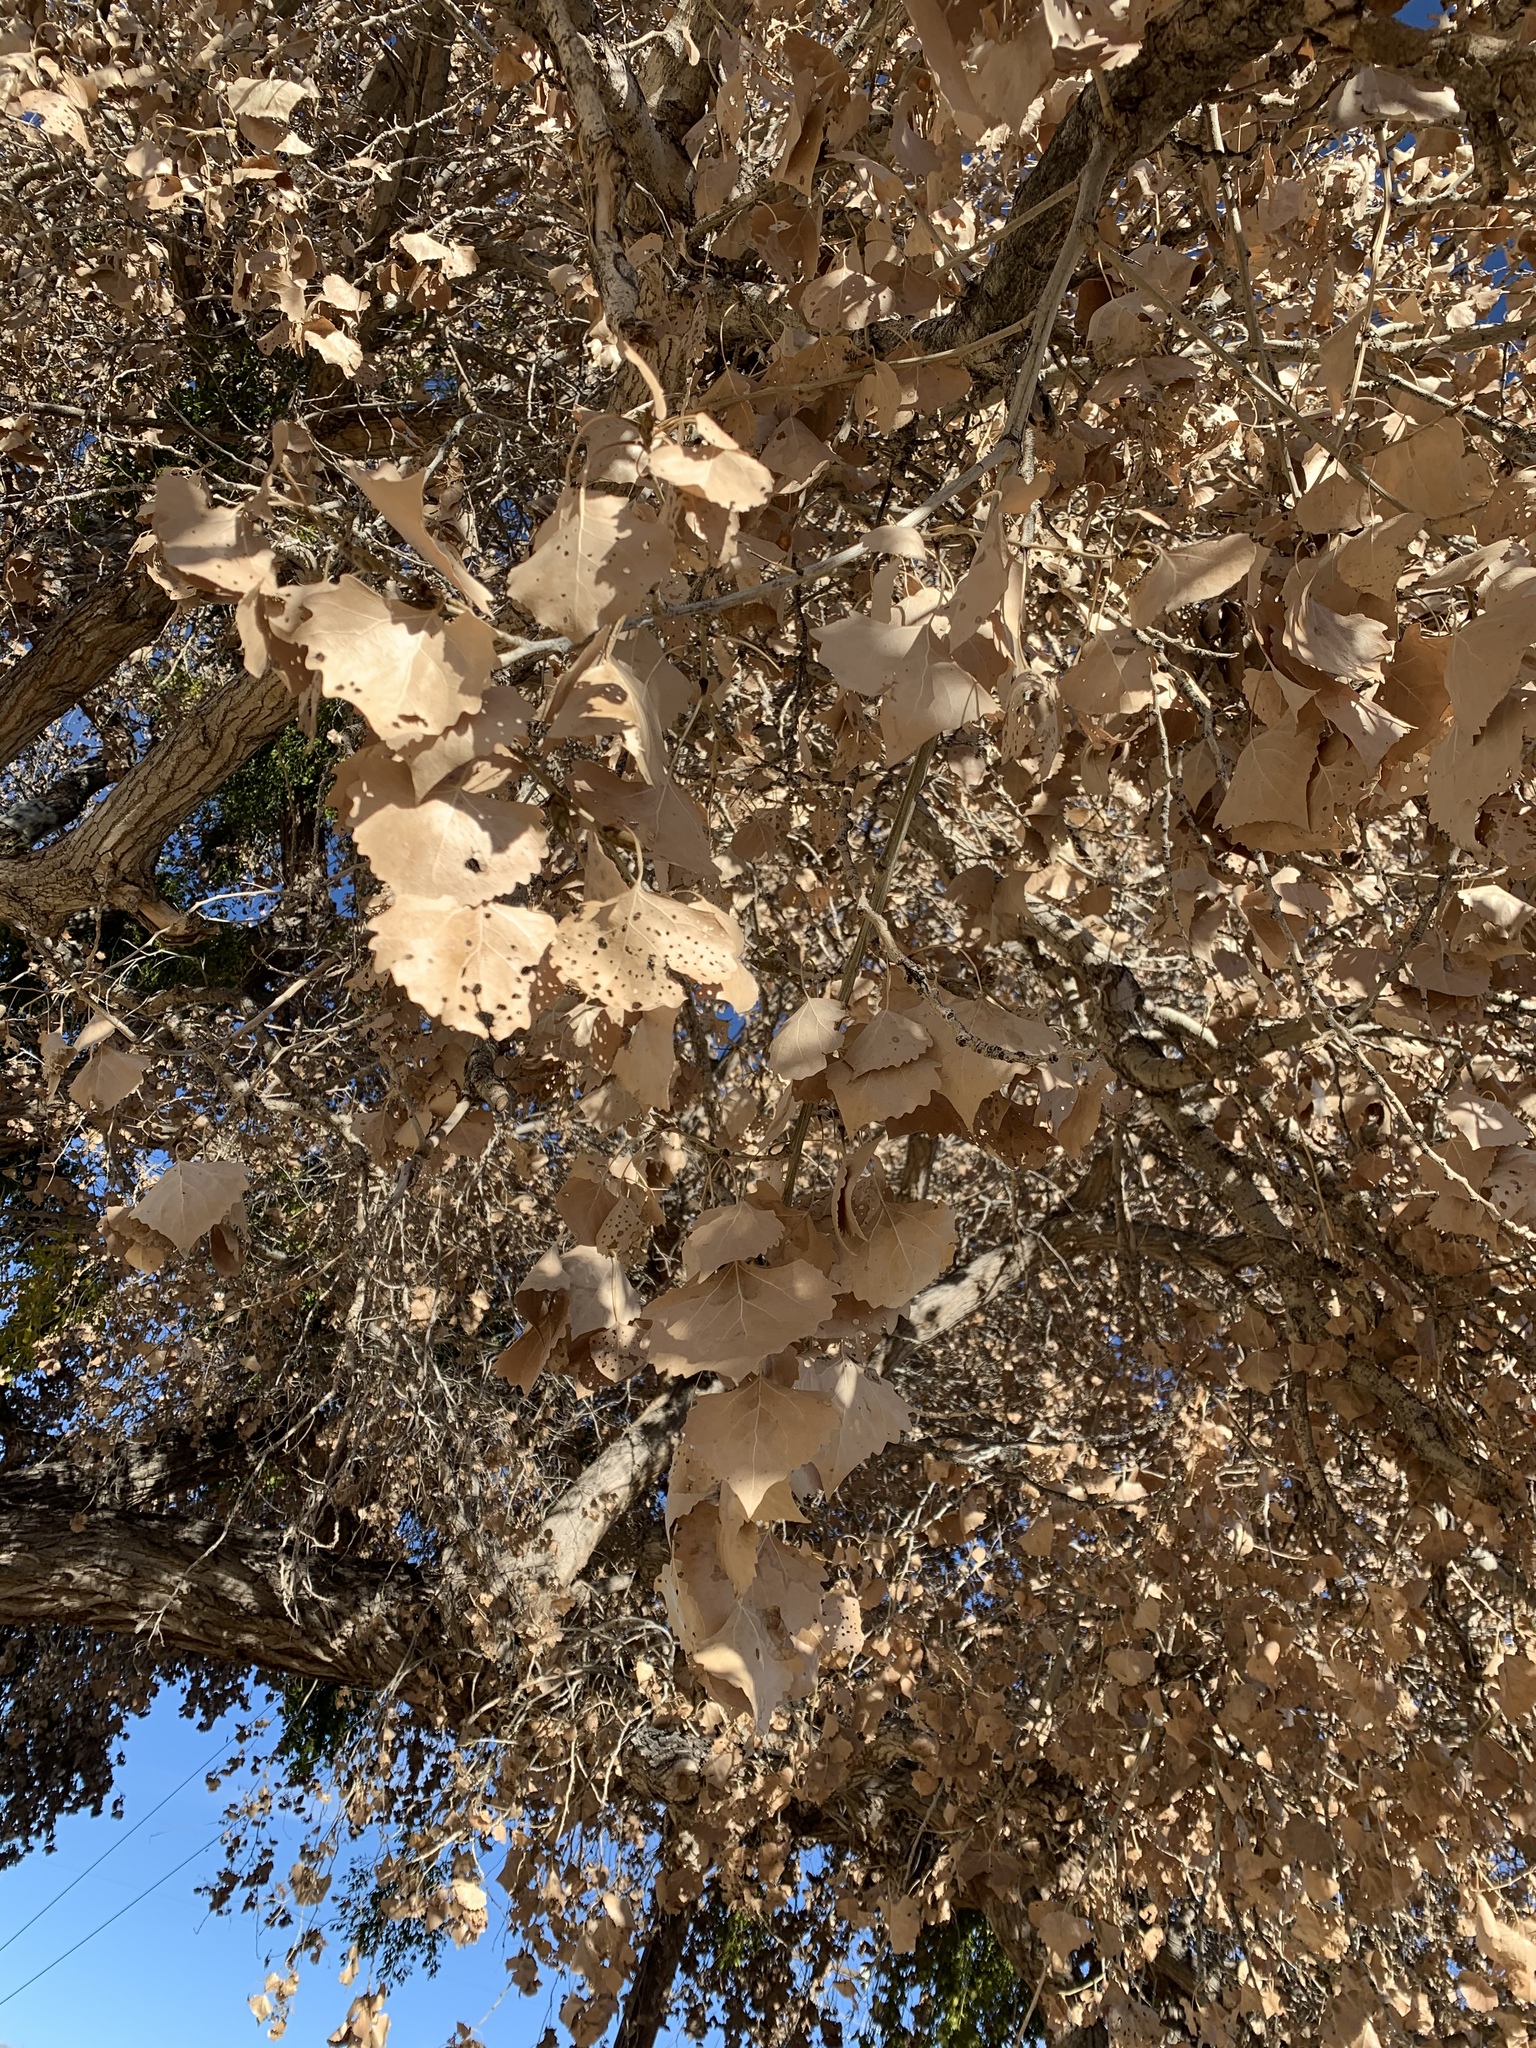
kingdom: Plantae
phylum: Tracheophyta
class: Magnoliopsida
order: Malpighiales
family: Salicaceae
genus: Populus
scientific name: Populus deltoides
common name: Eastern cottonwood
